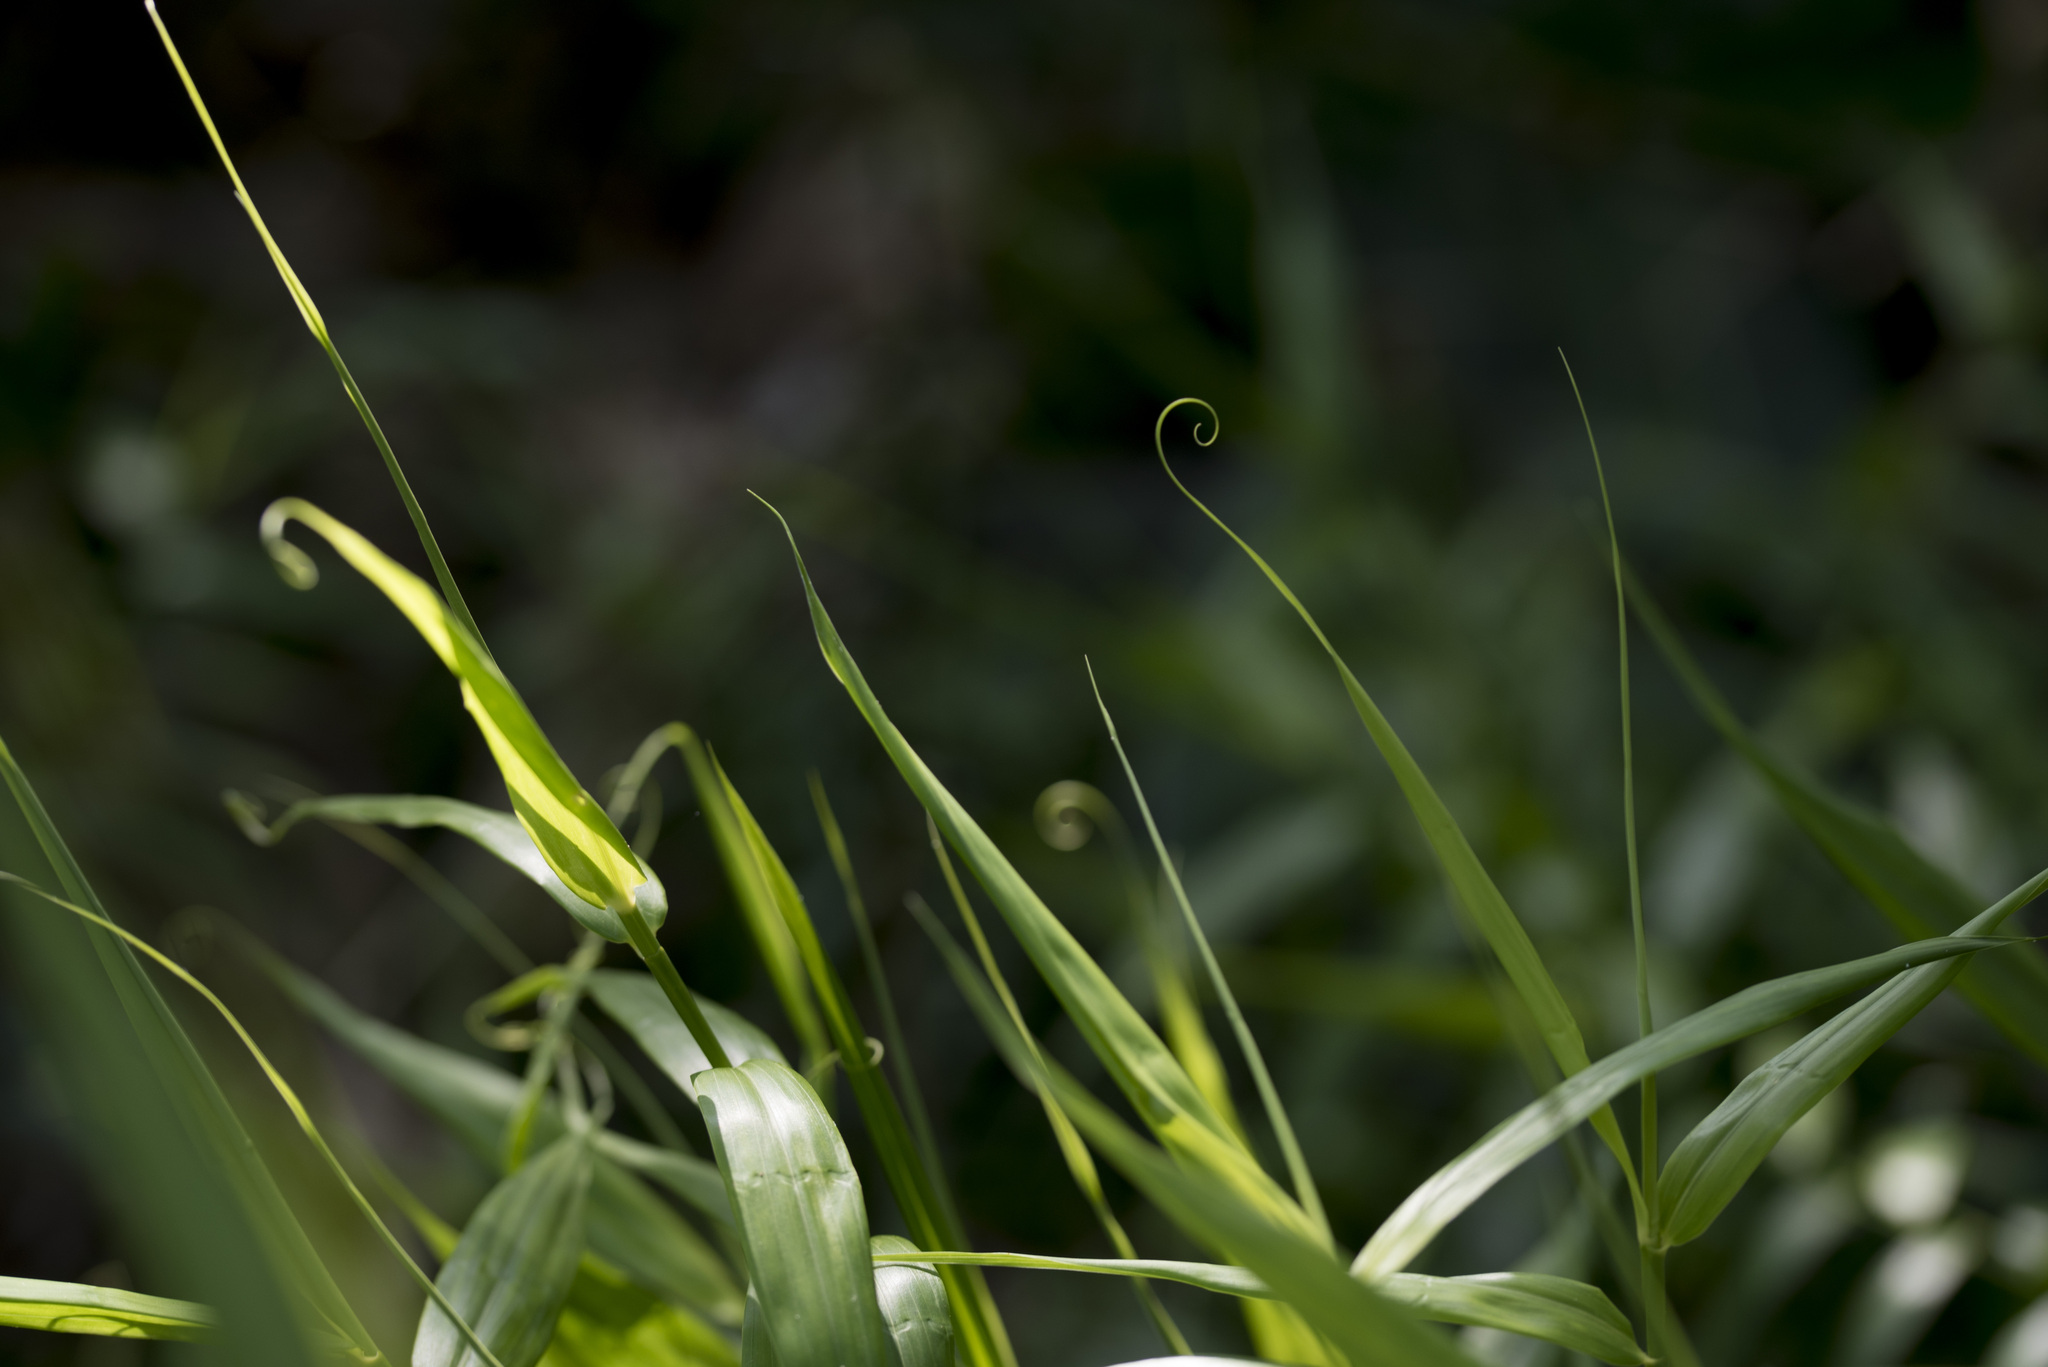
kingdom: Plantae
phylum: Tracheophyta
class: Liliopsida
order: Poales
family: Flagellariaceae
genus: Flagellaria
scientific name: Flagellaria indica
